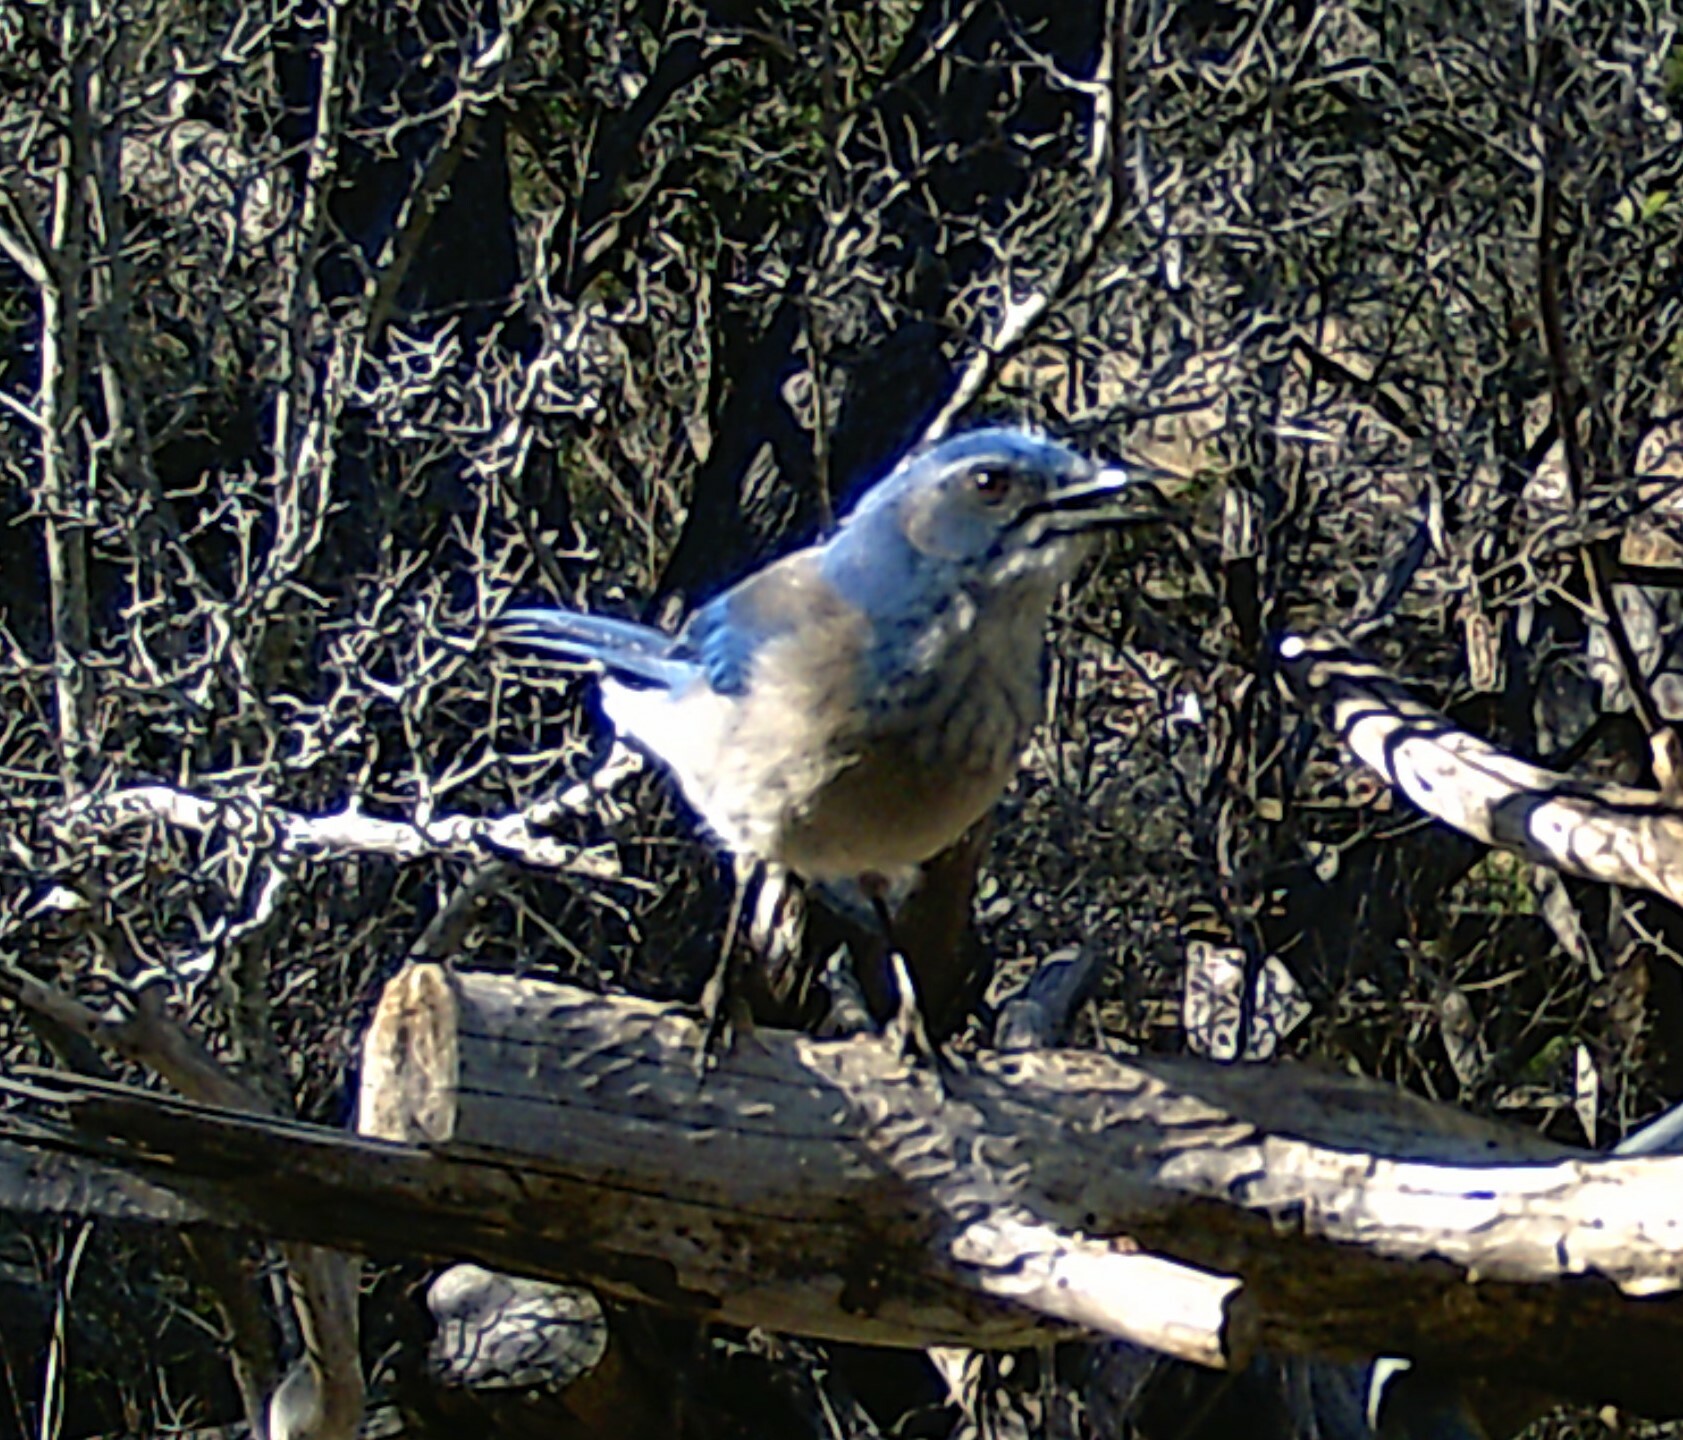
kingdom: Animalia
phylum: Chordata
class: Aves
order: Passeriformes
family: Corvidae
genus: Aphelocoma
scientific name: Aphelocoma woodhouseii
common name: Woodhouse's scrub-jay
